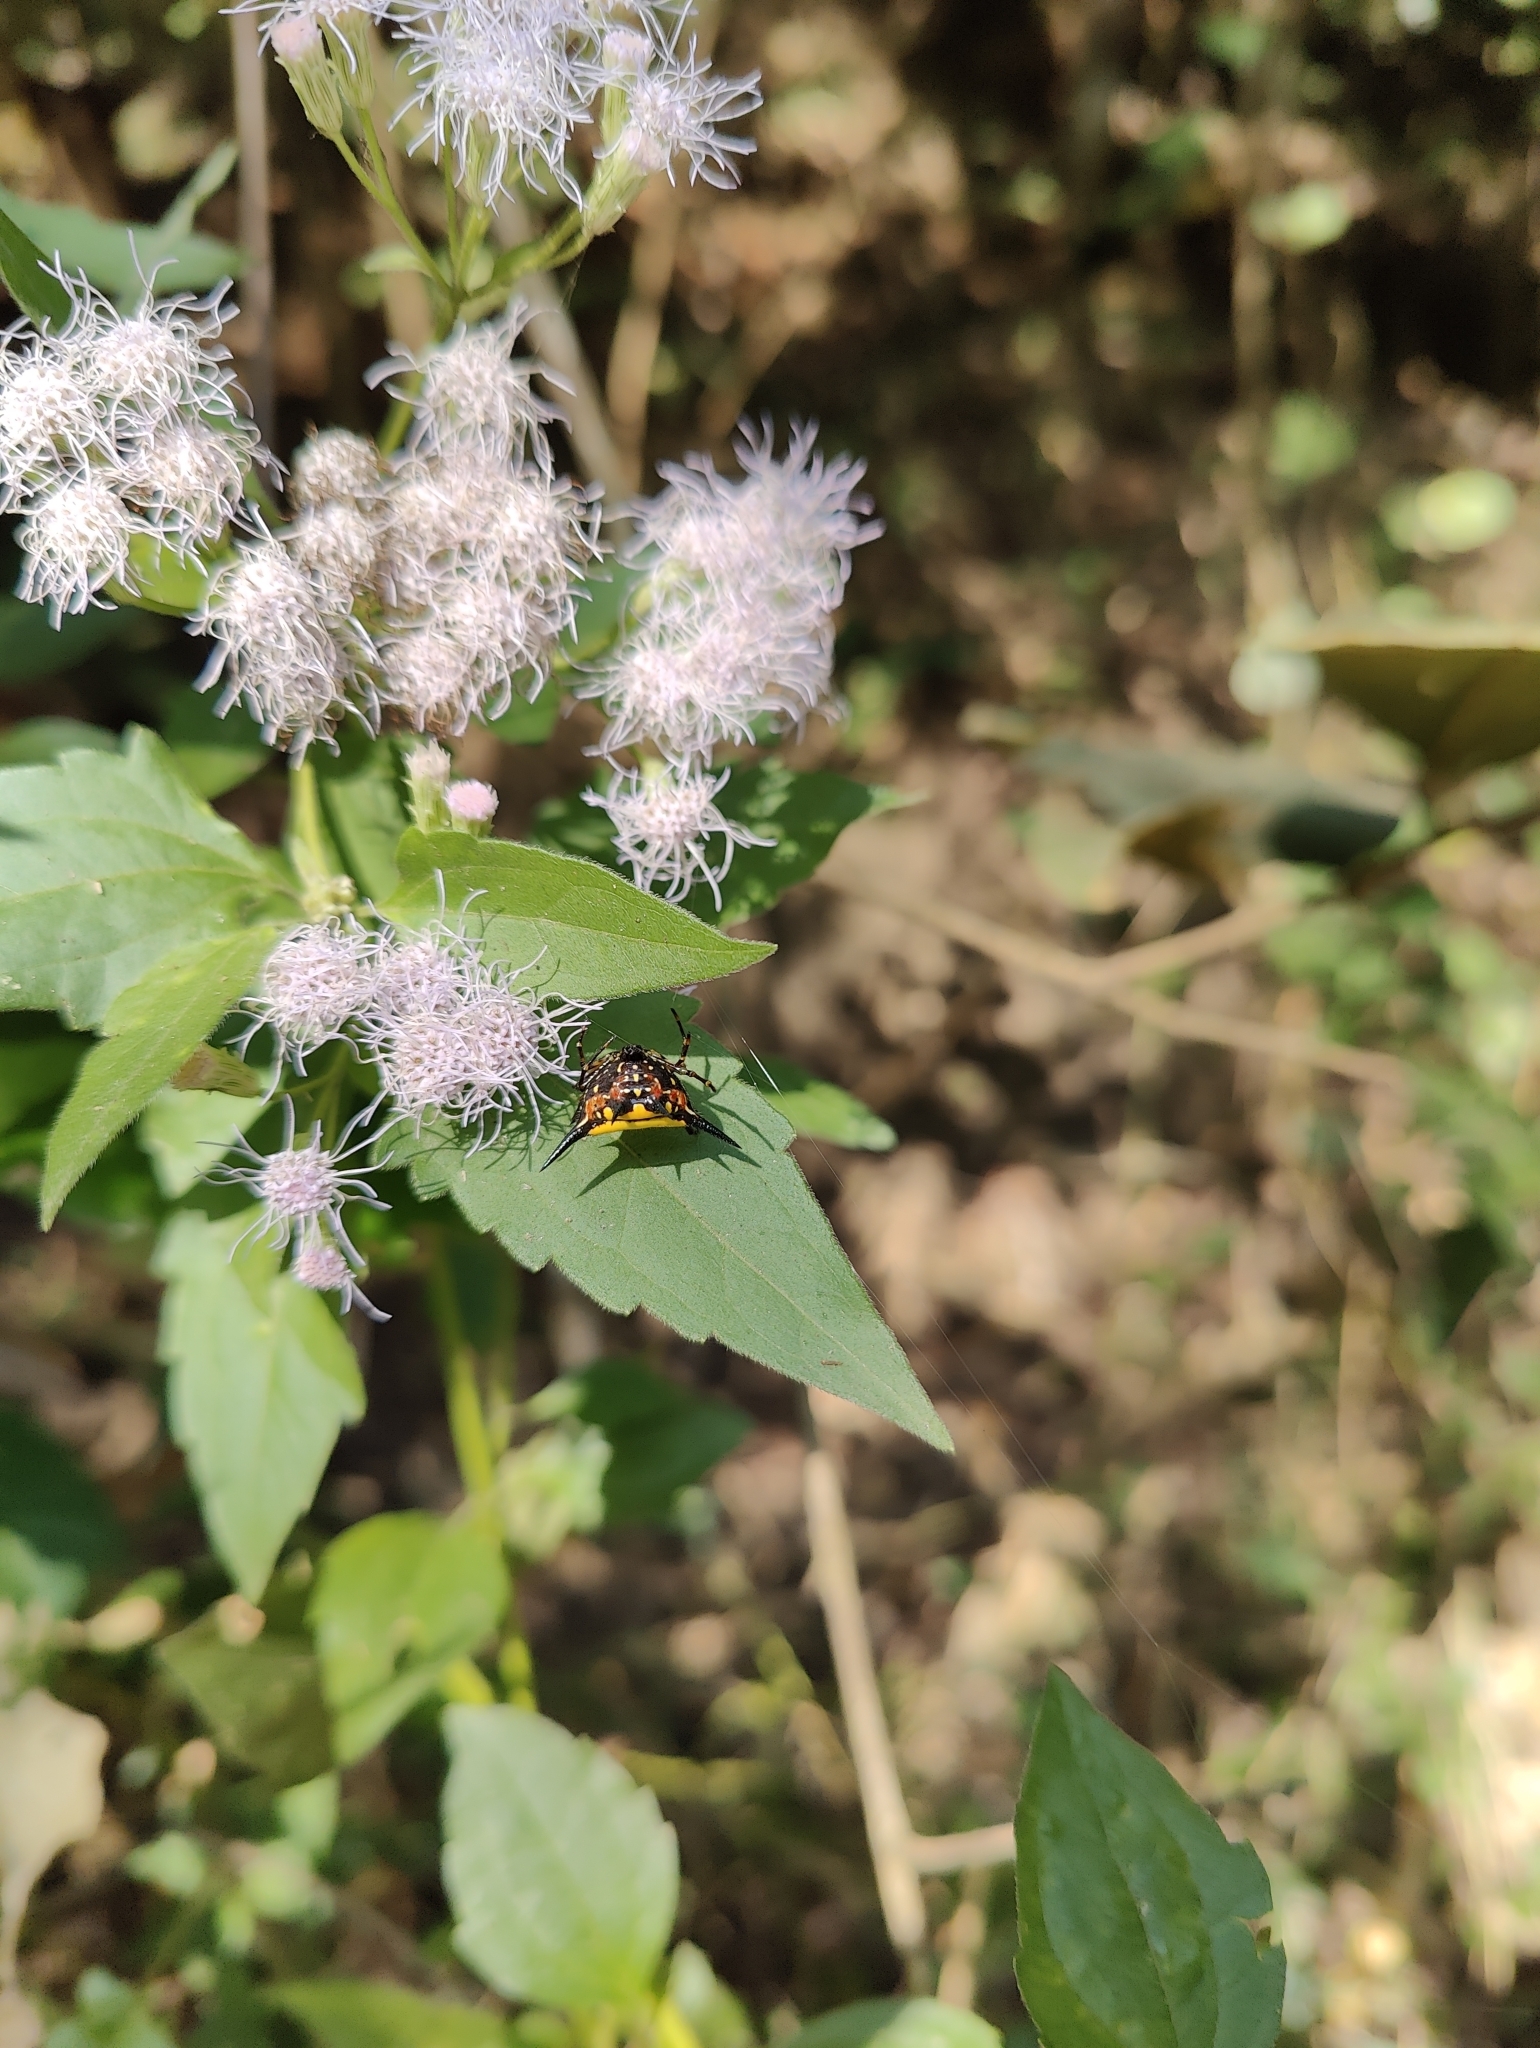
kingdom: Animalia
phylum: Arthropoda
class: Arachnida
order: Araneae
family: Araneidae
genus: Macracantha
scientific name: Macracantha hasselti
